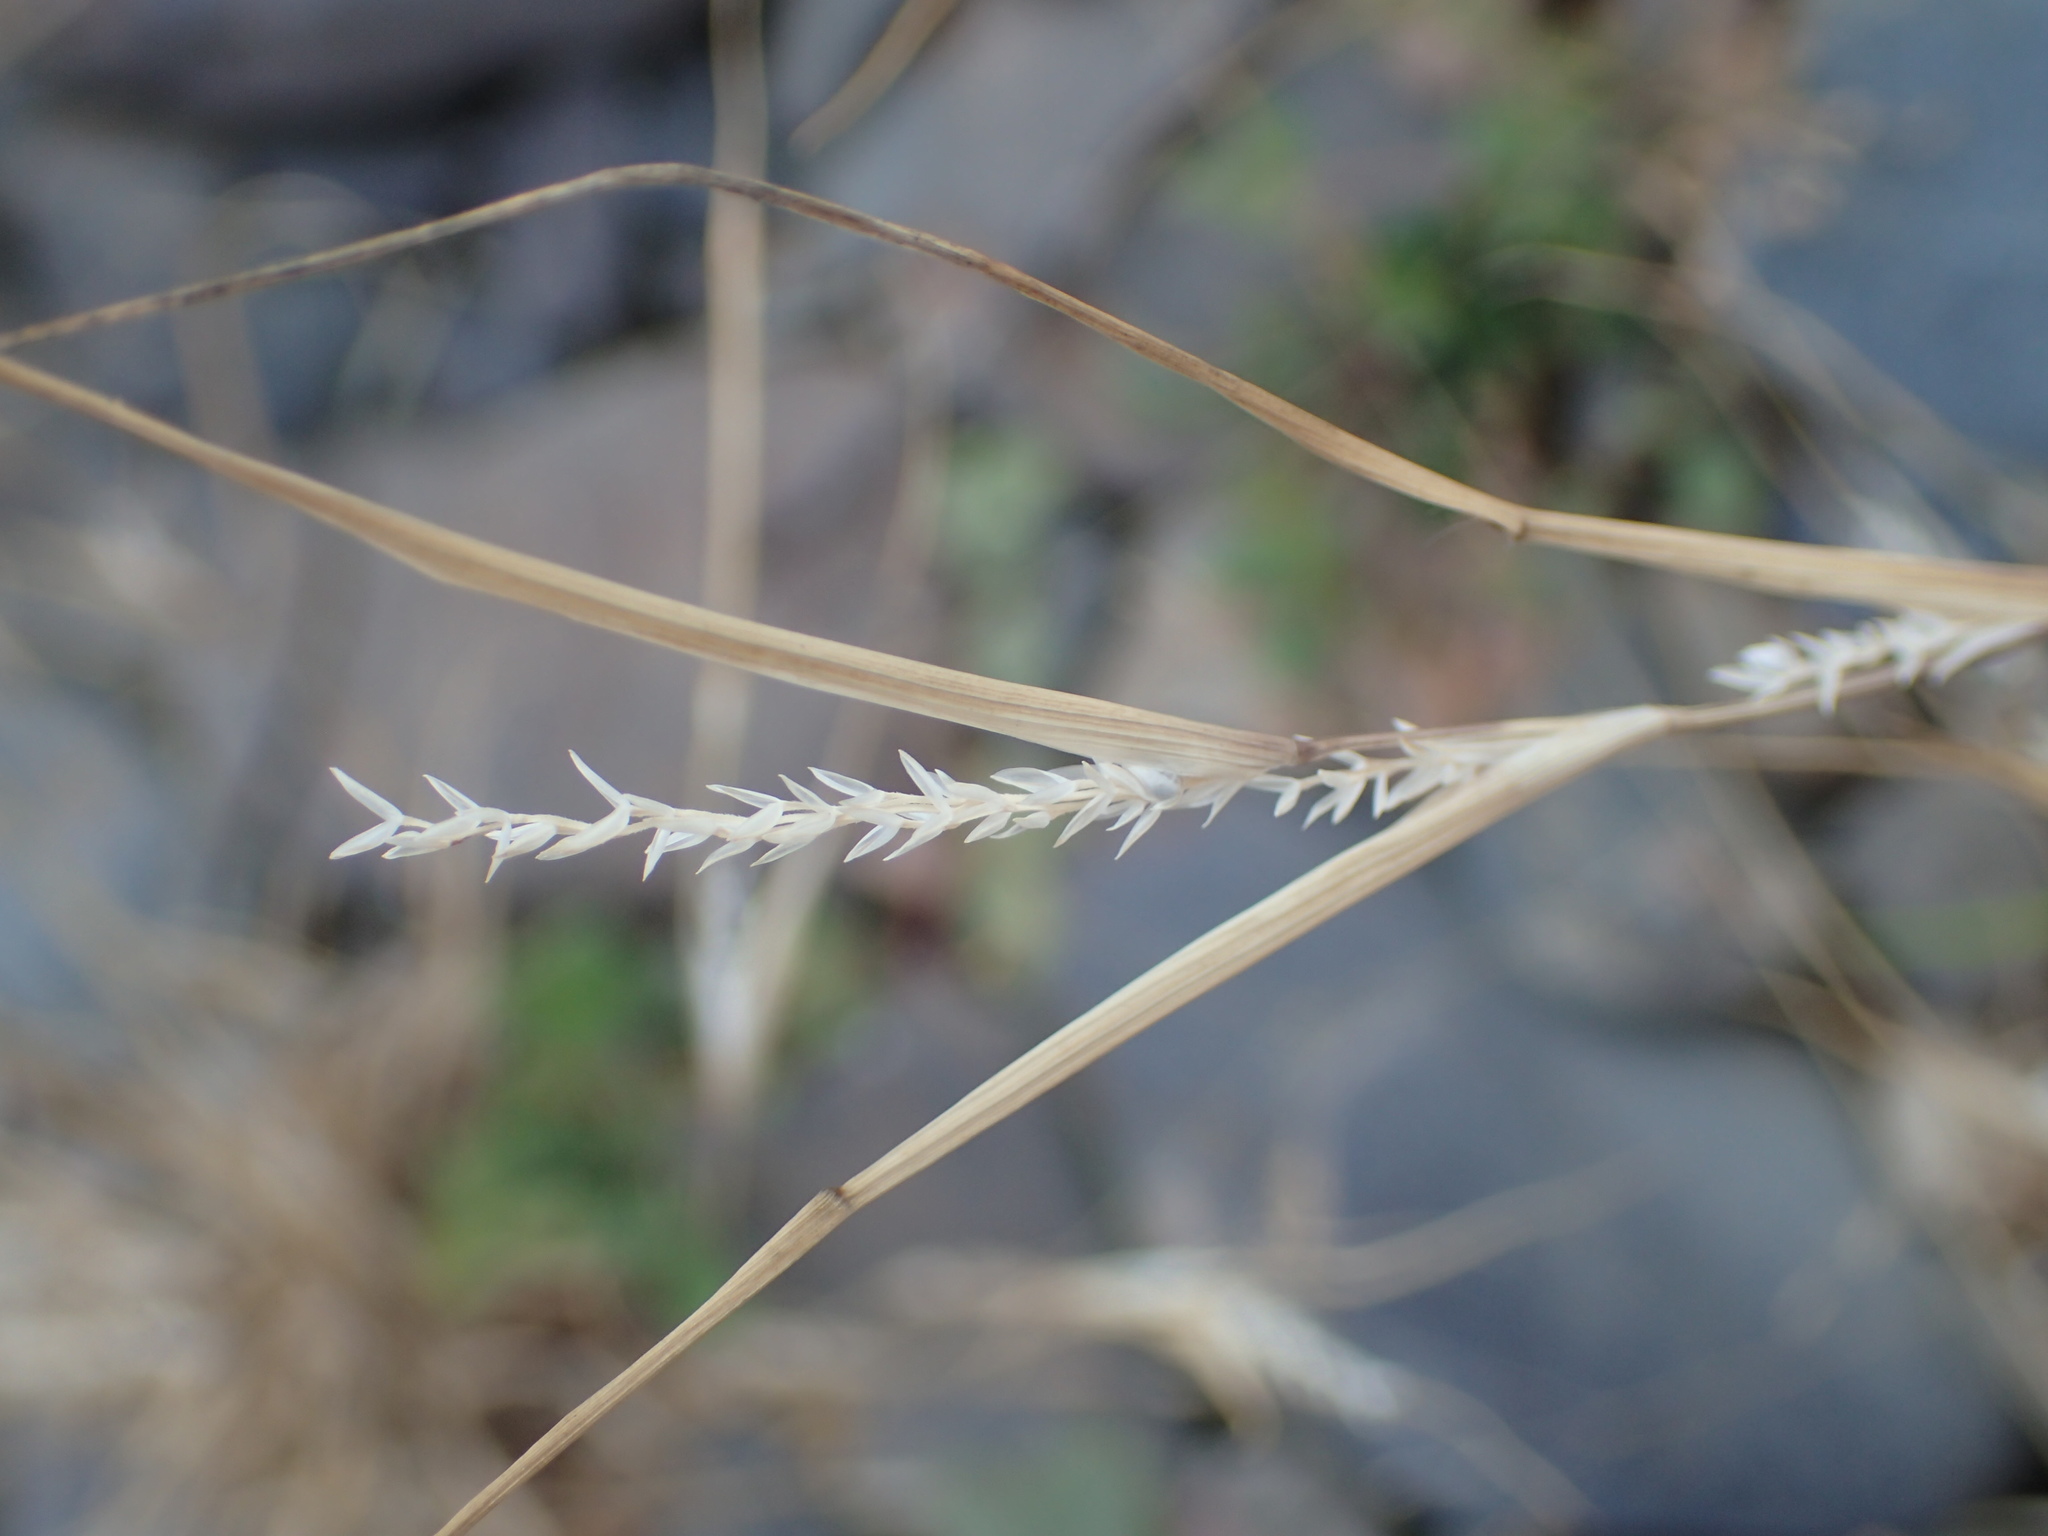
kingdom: Plantae
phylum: Tracheophyta
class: Liliopsida
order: Poales
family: Poaceae
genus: Sporobolus
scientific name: Sporobolus neglectus
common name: Annual dropseed
